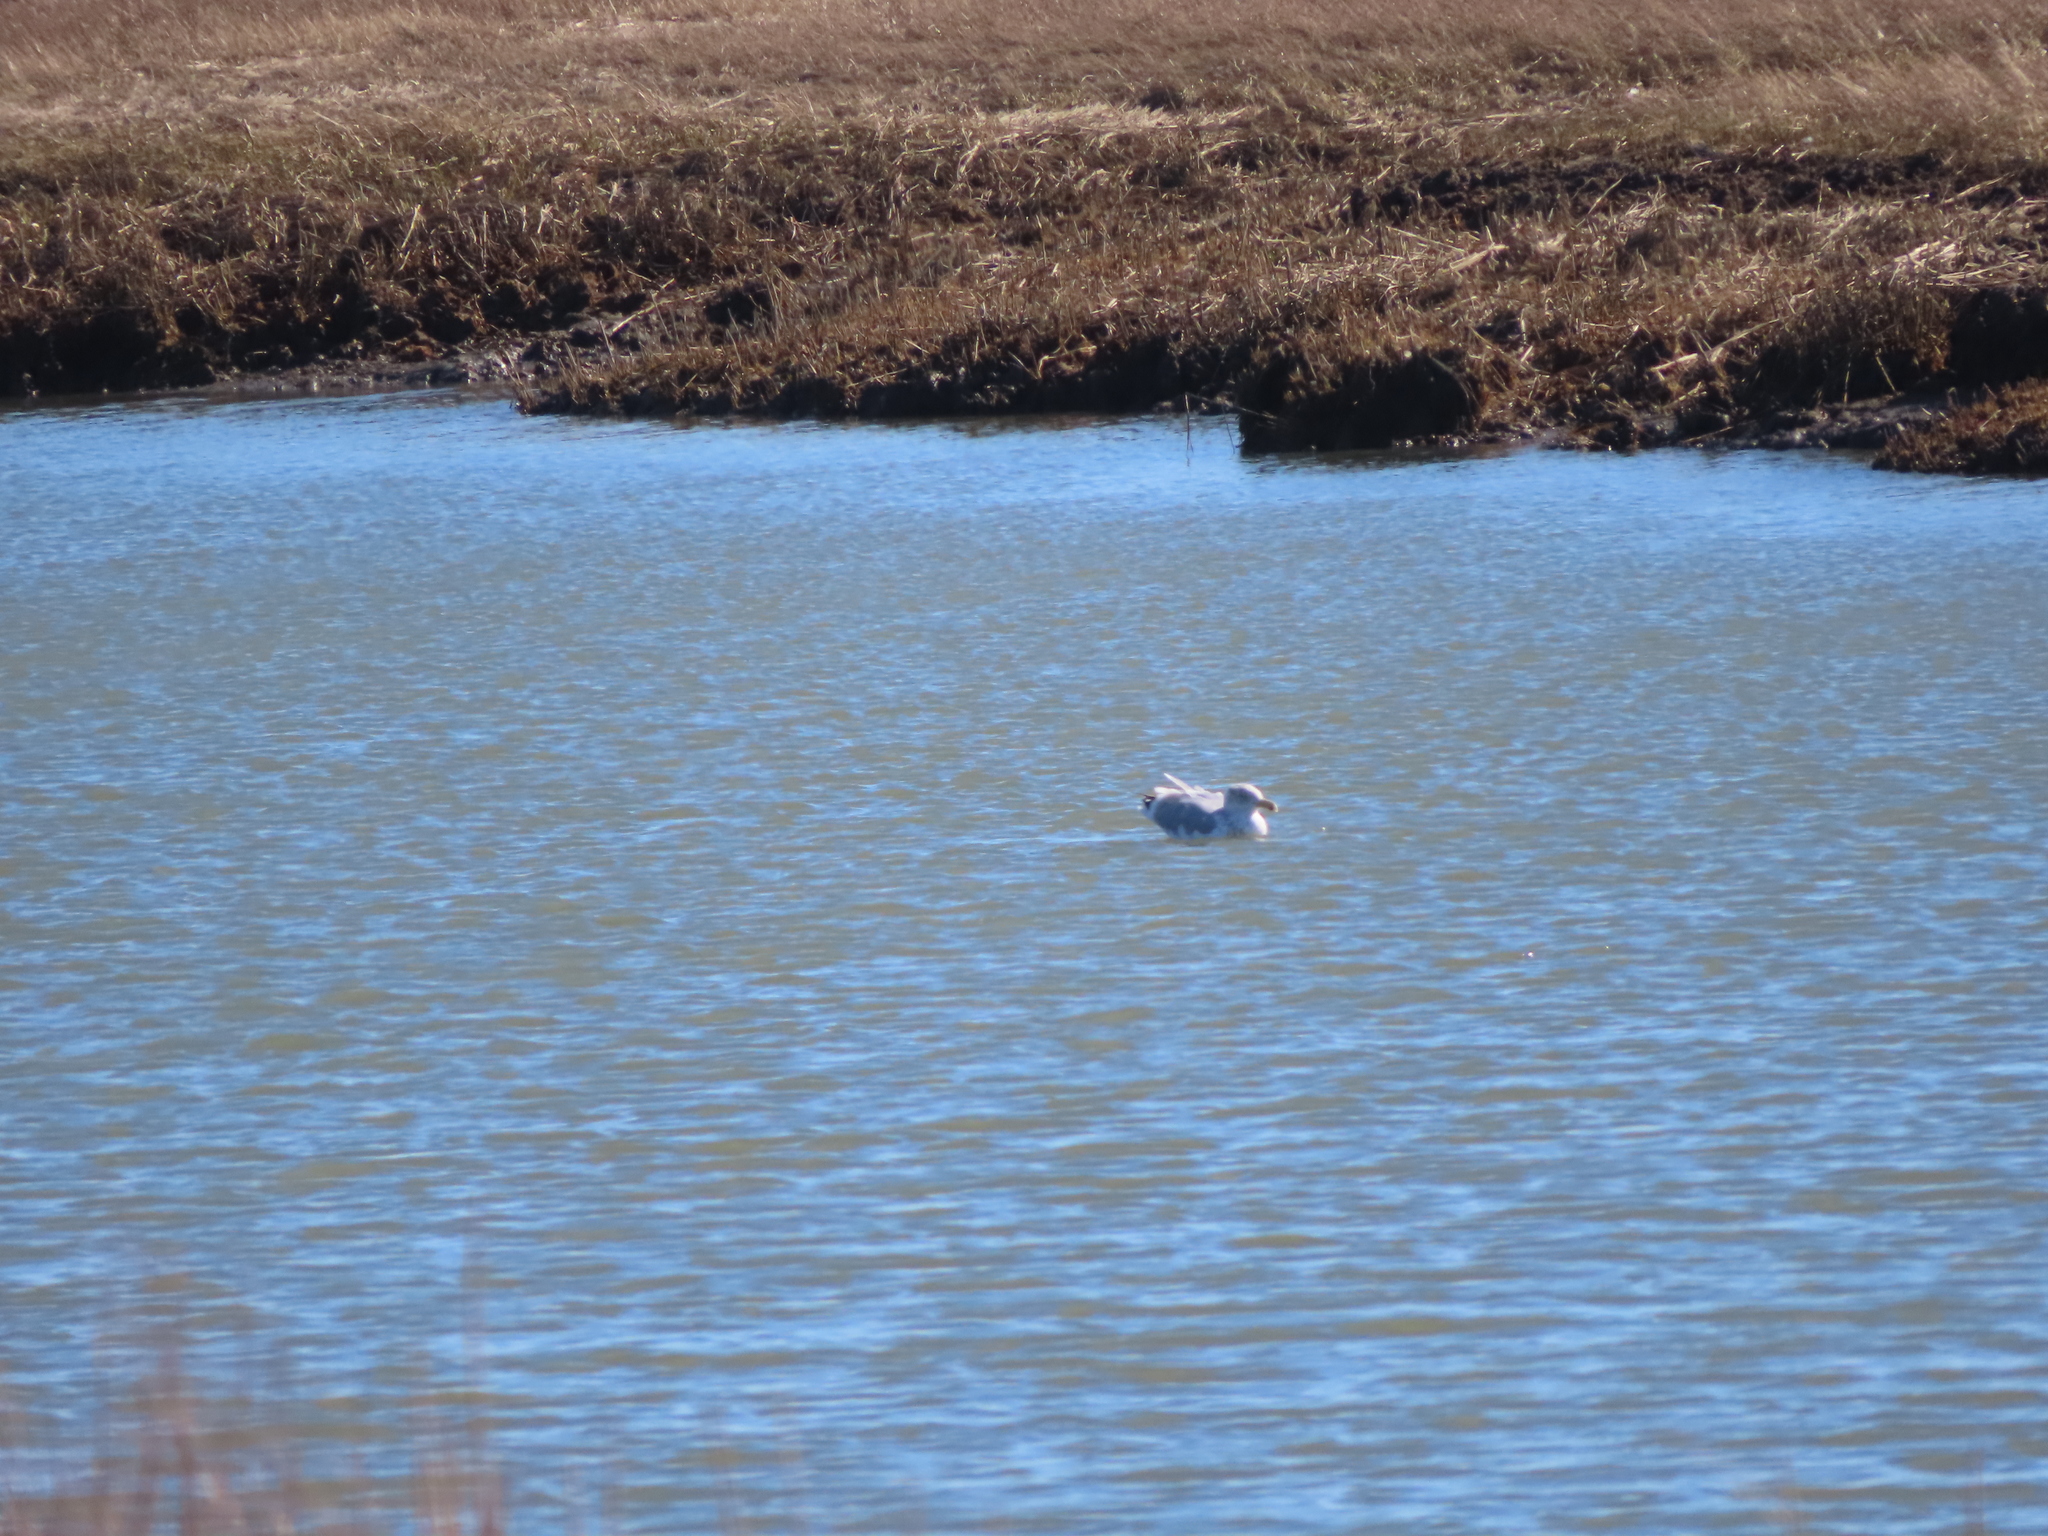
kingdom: Animalia
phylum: Chordata
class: Aves
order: Charadriiformes
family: Laridae
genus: Larus
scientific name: Larus argentatus
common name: Herring gull
